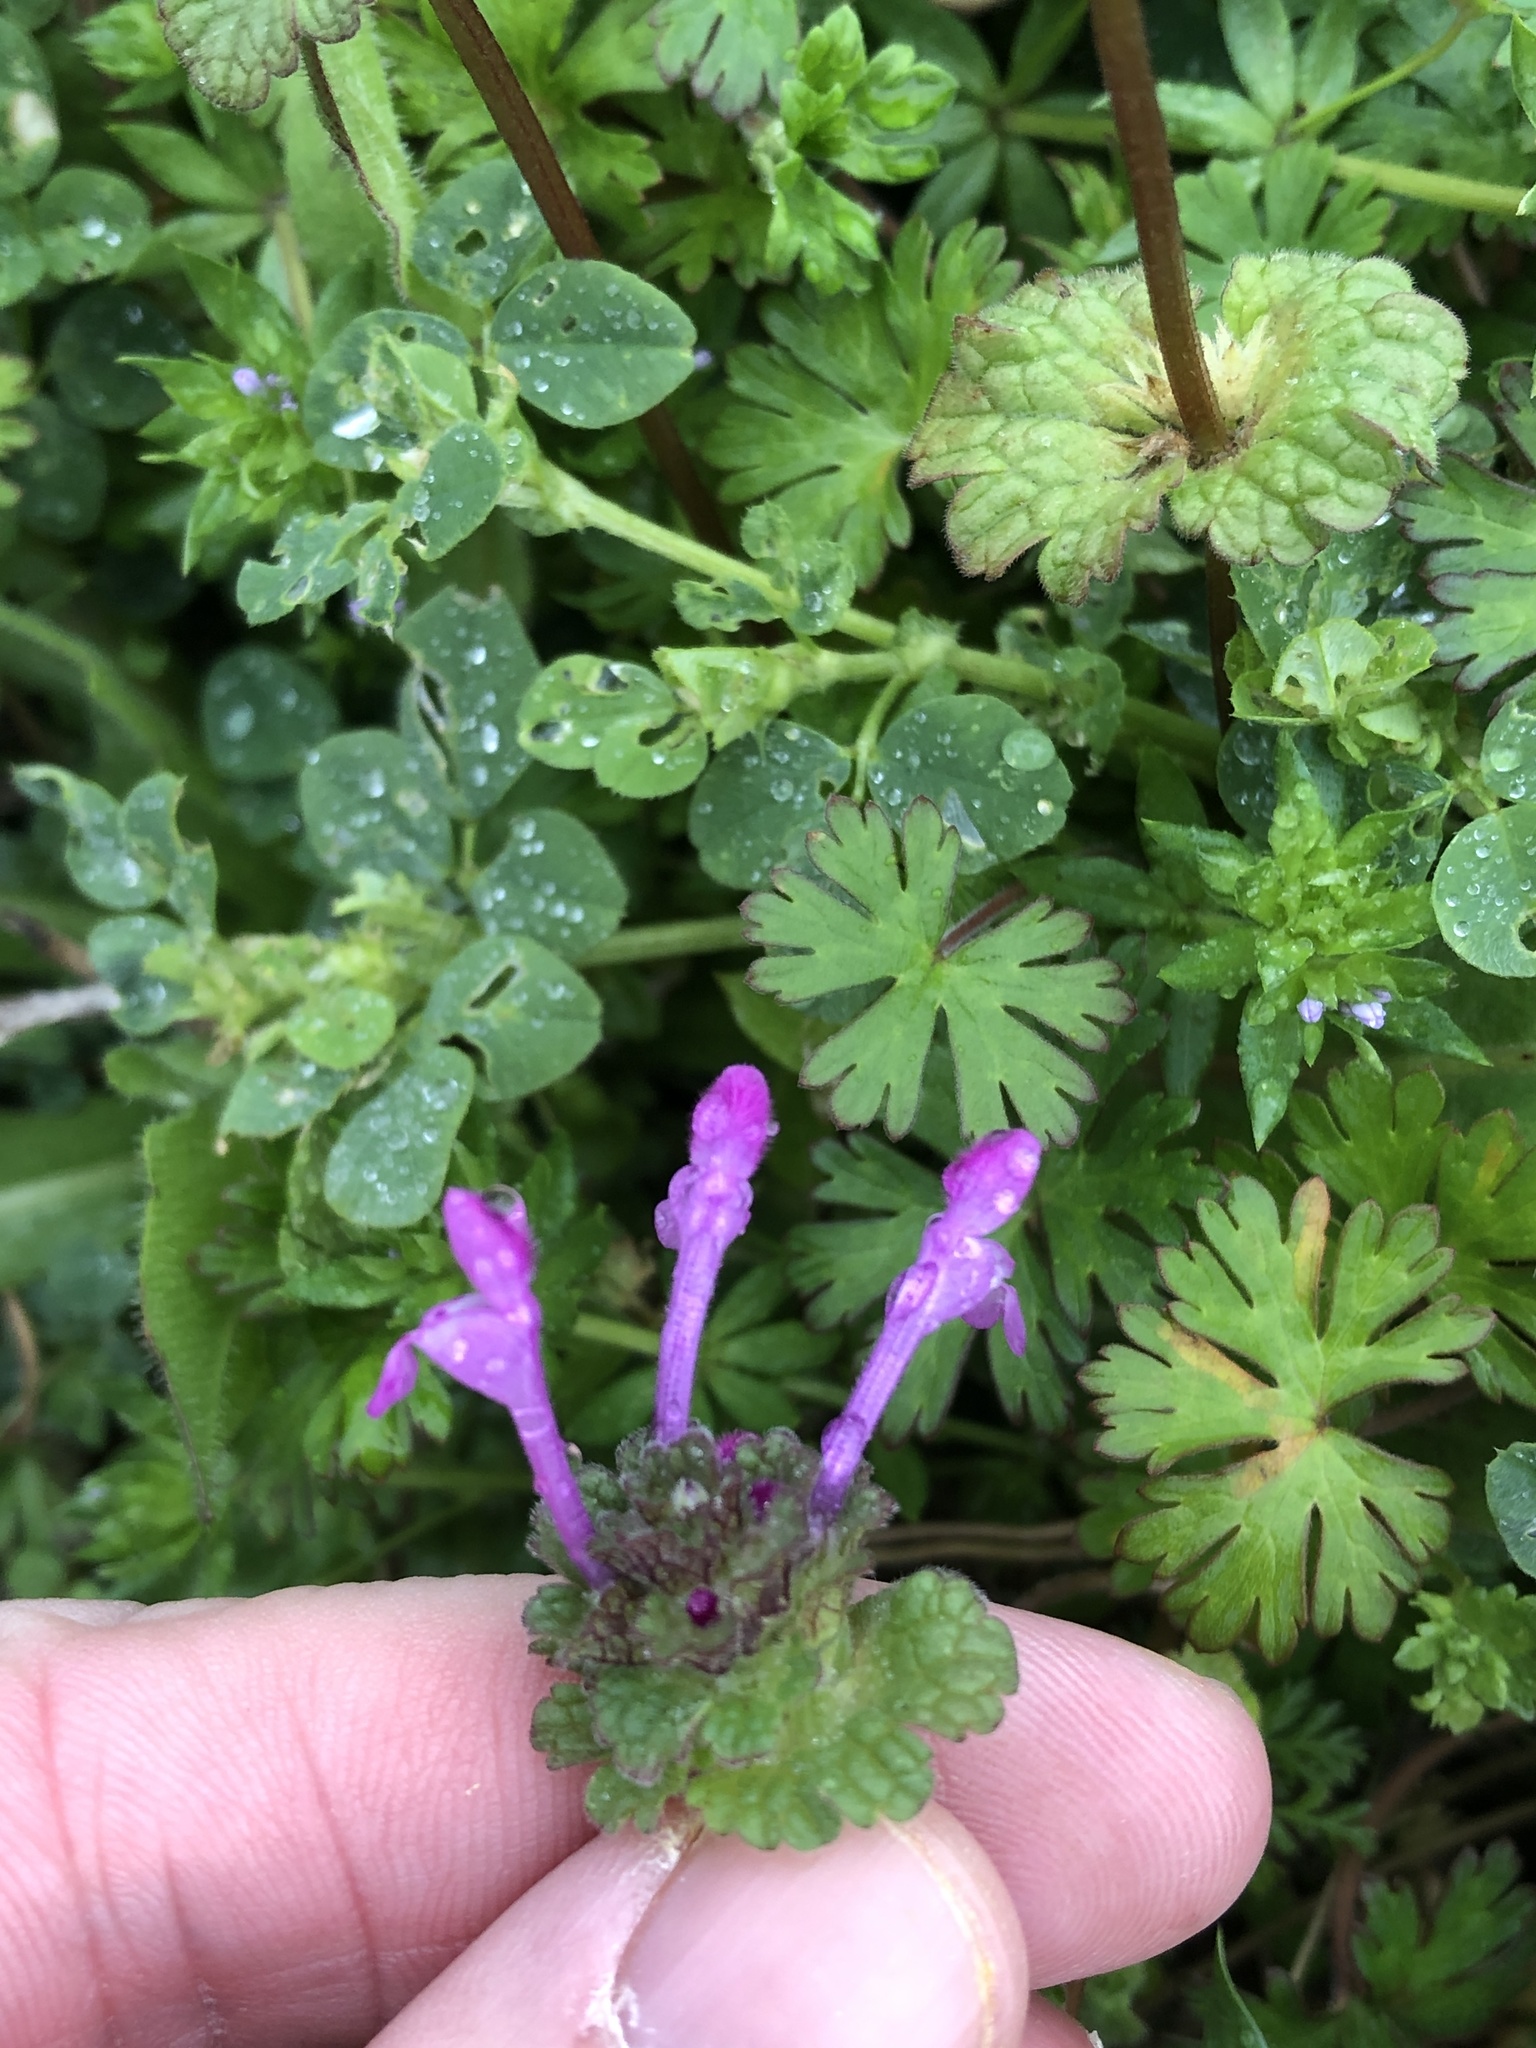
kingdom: Plantae
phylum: Tracheophyta
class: Magnoliopsida
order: Lamiales
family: Lamiaceae
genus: Lamium
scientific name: Lamium amplexicaule
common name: Henbit dead-nettle
